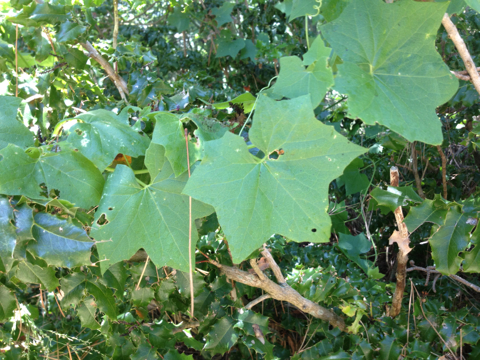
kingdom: Plantae
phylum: Tracheophyta
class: Magnoliopsida
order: Cucurbitales
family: Cucurbitaceae
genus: Marah
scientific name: Marah fabacea
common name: California manroot
